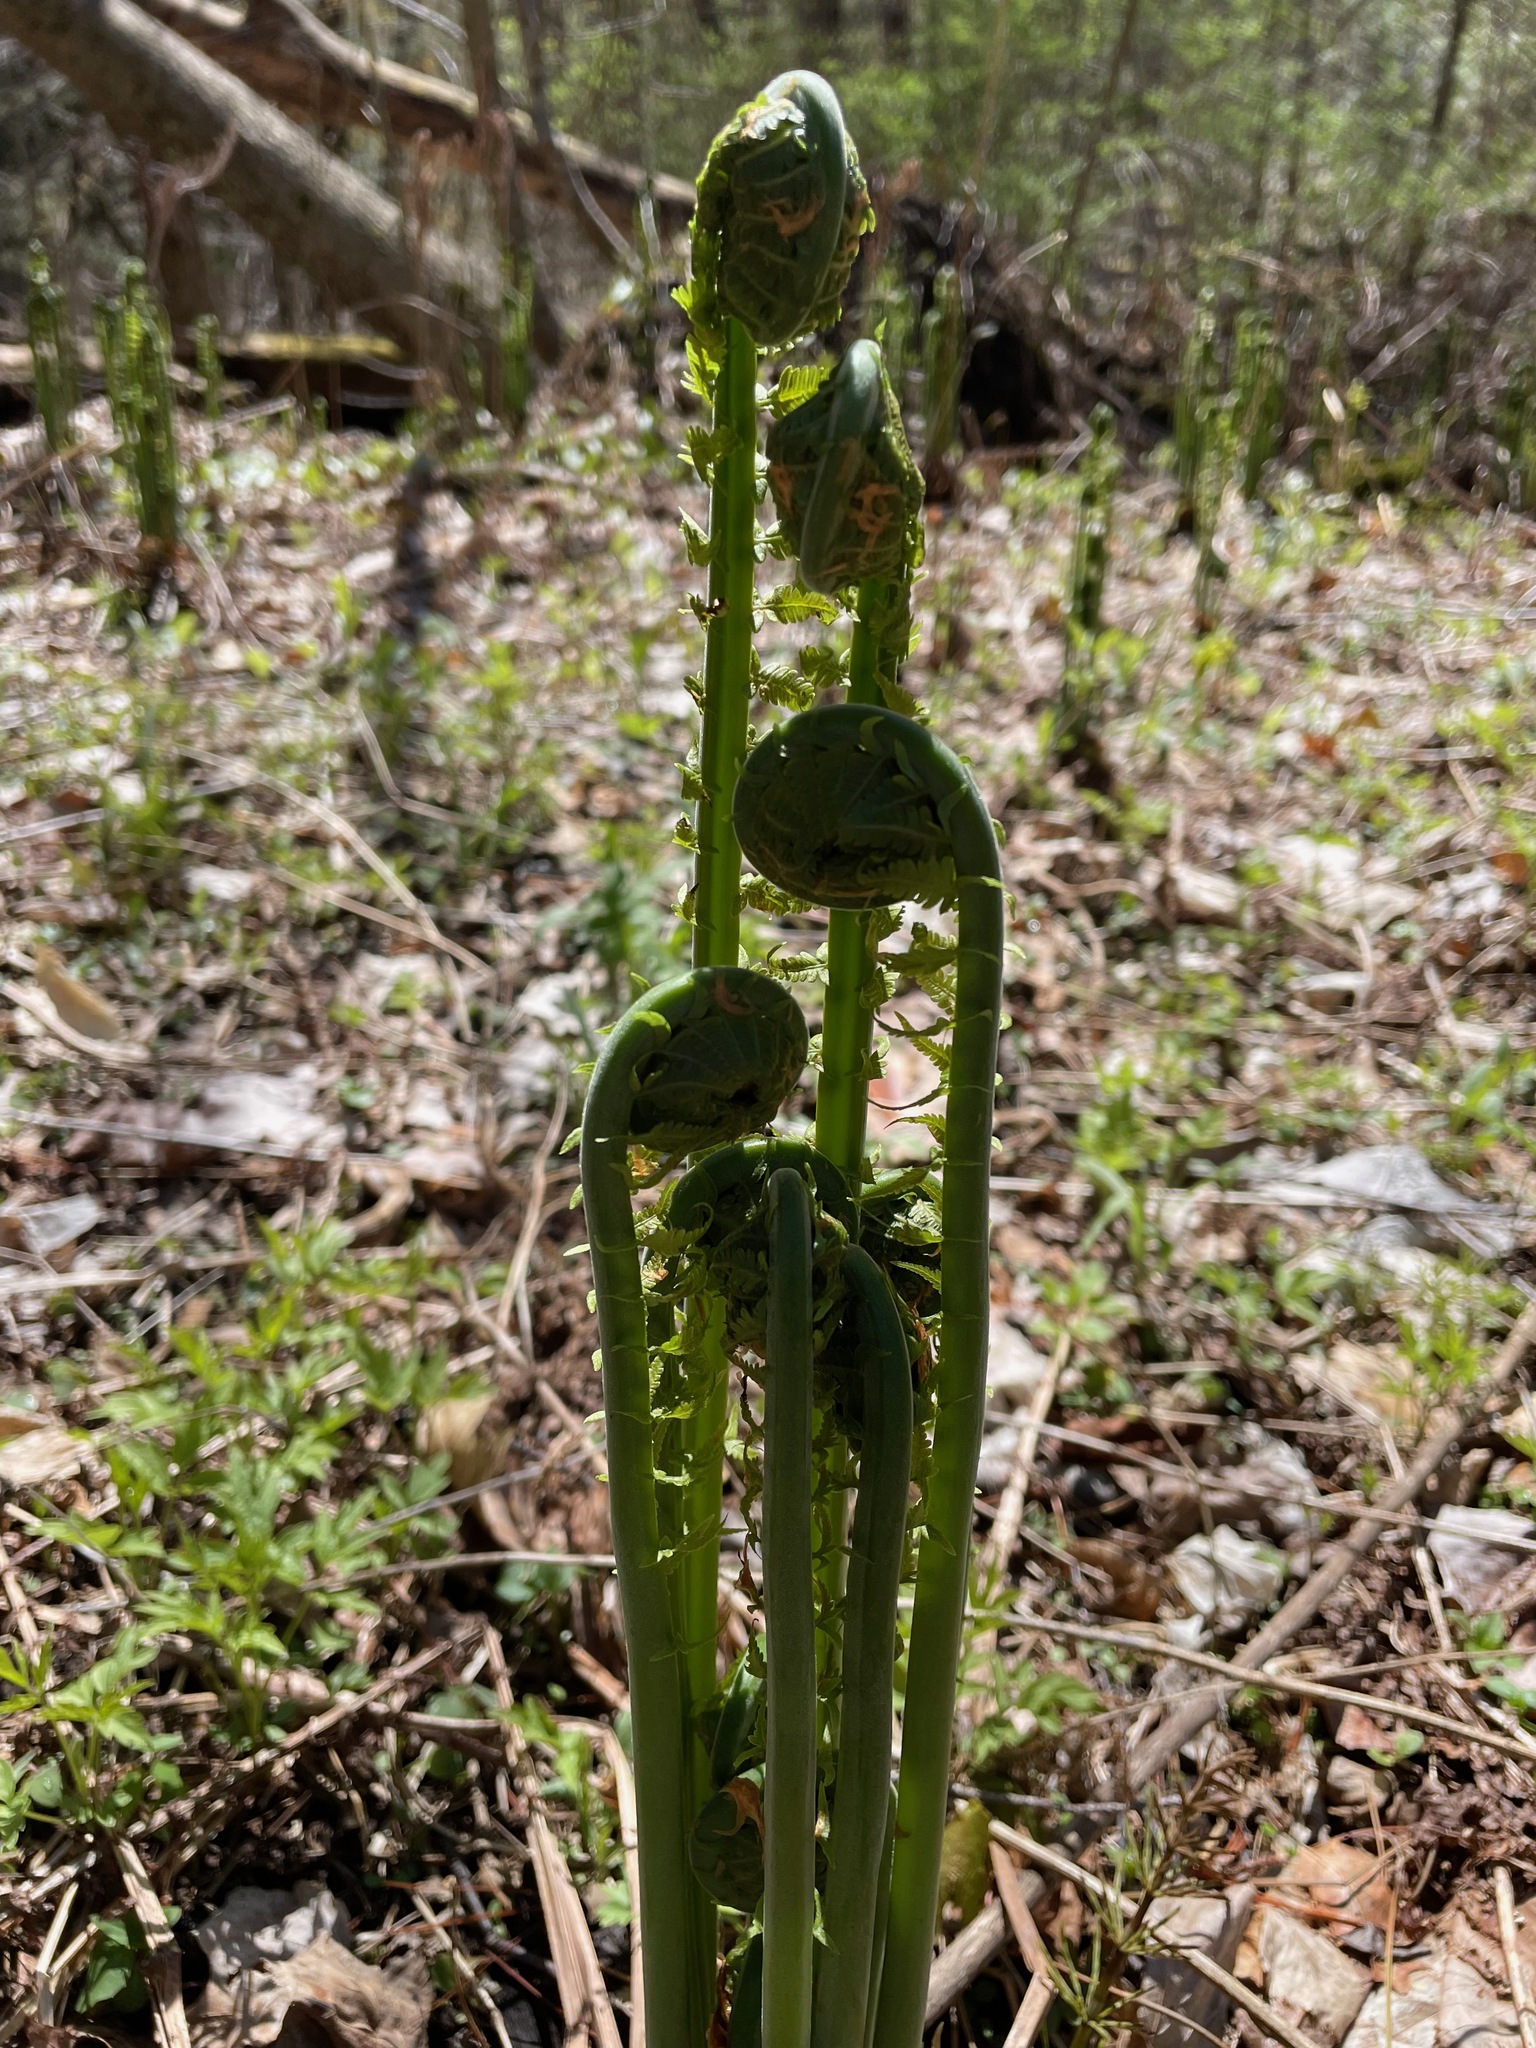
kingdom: Plantae
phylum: Tracheophyta
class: Polypodiopsida
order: Polypodiales
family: Onocleaceae
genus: Matteuccia
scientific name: Matteuccia struthiopteris
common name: Ostrich fern
